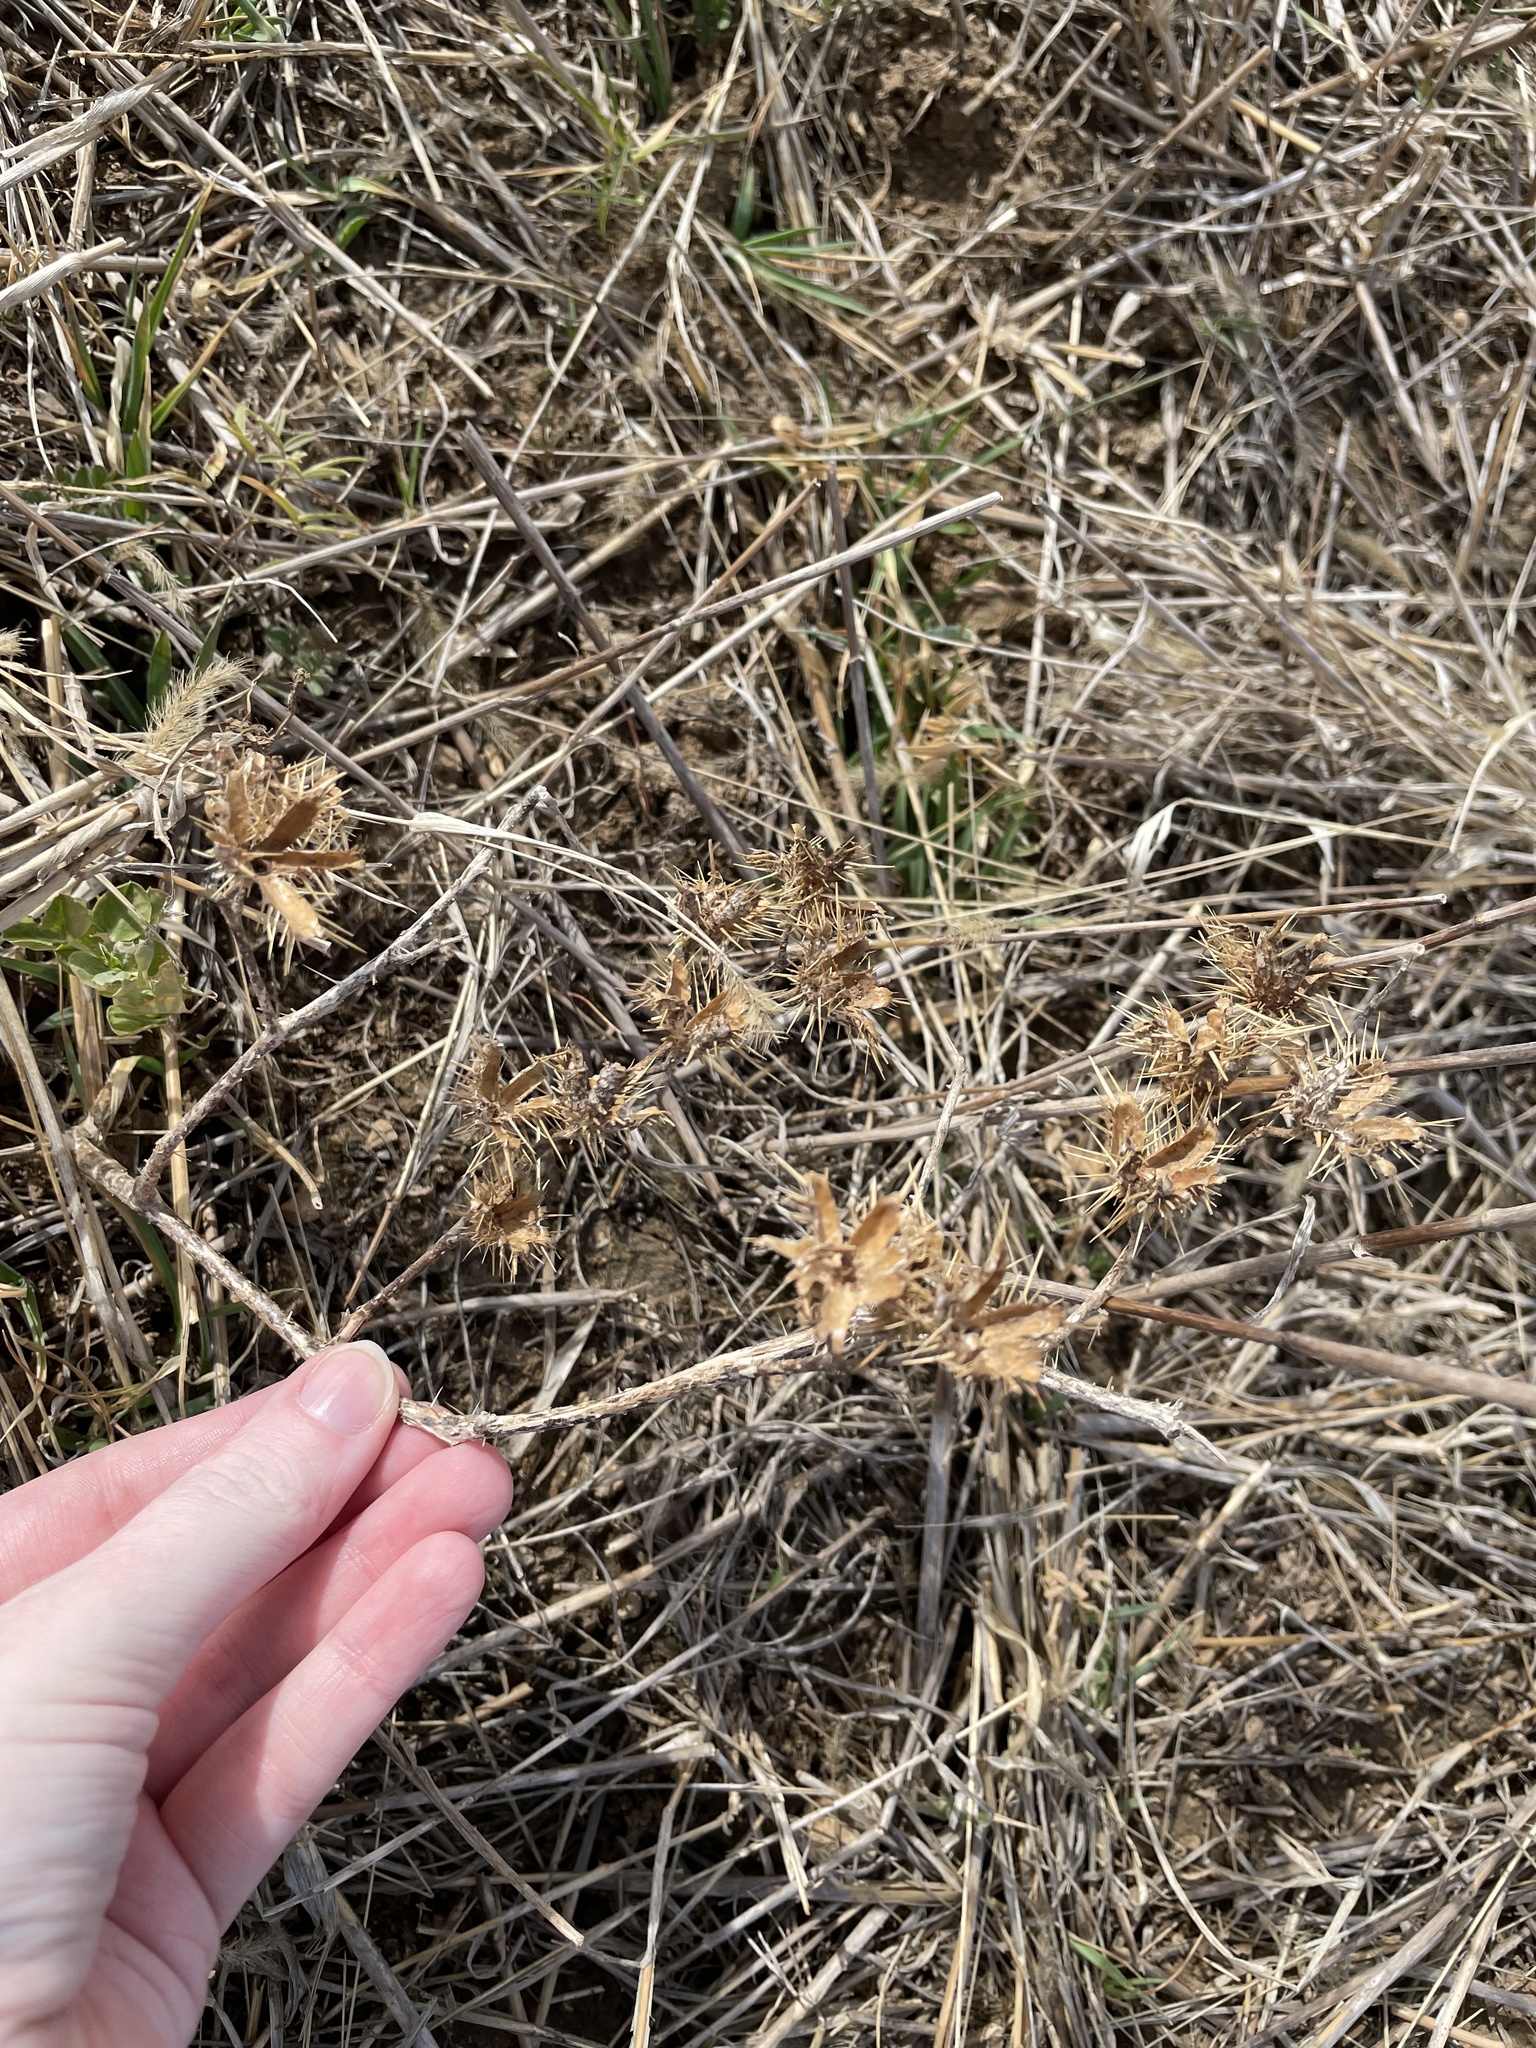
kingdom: Plantae
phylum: Tracheophyta
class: Magnoliopsida
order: Solanales
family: Solanaceae
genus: Solanum
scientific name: Solanum angustifolium
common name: Buffalobur nightshade
